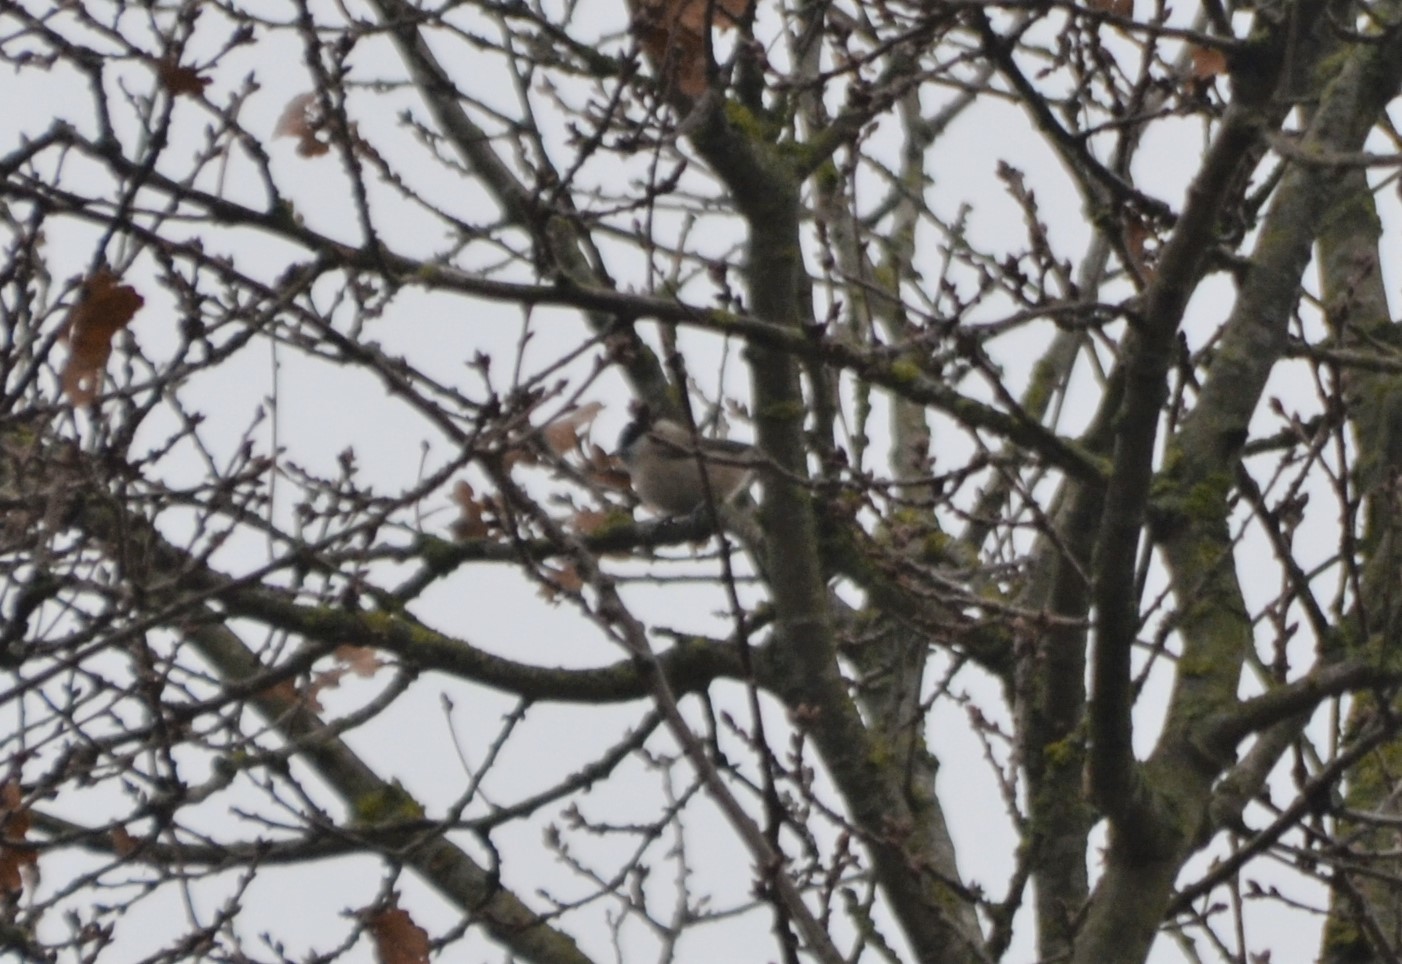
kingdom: Animalia
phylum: Chordata
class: Aves
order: Passeriformes
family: Paridae
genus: Poecile
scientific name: Poecile palustris
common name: Marsh tit
